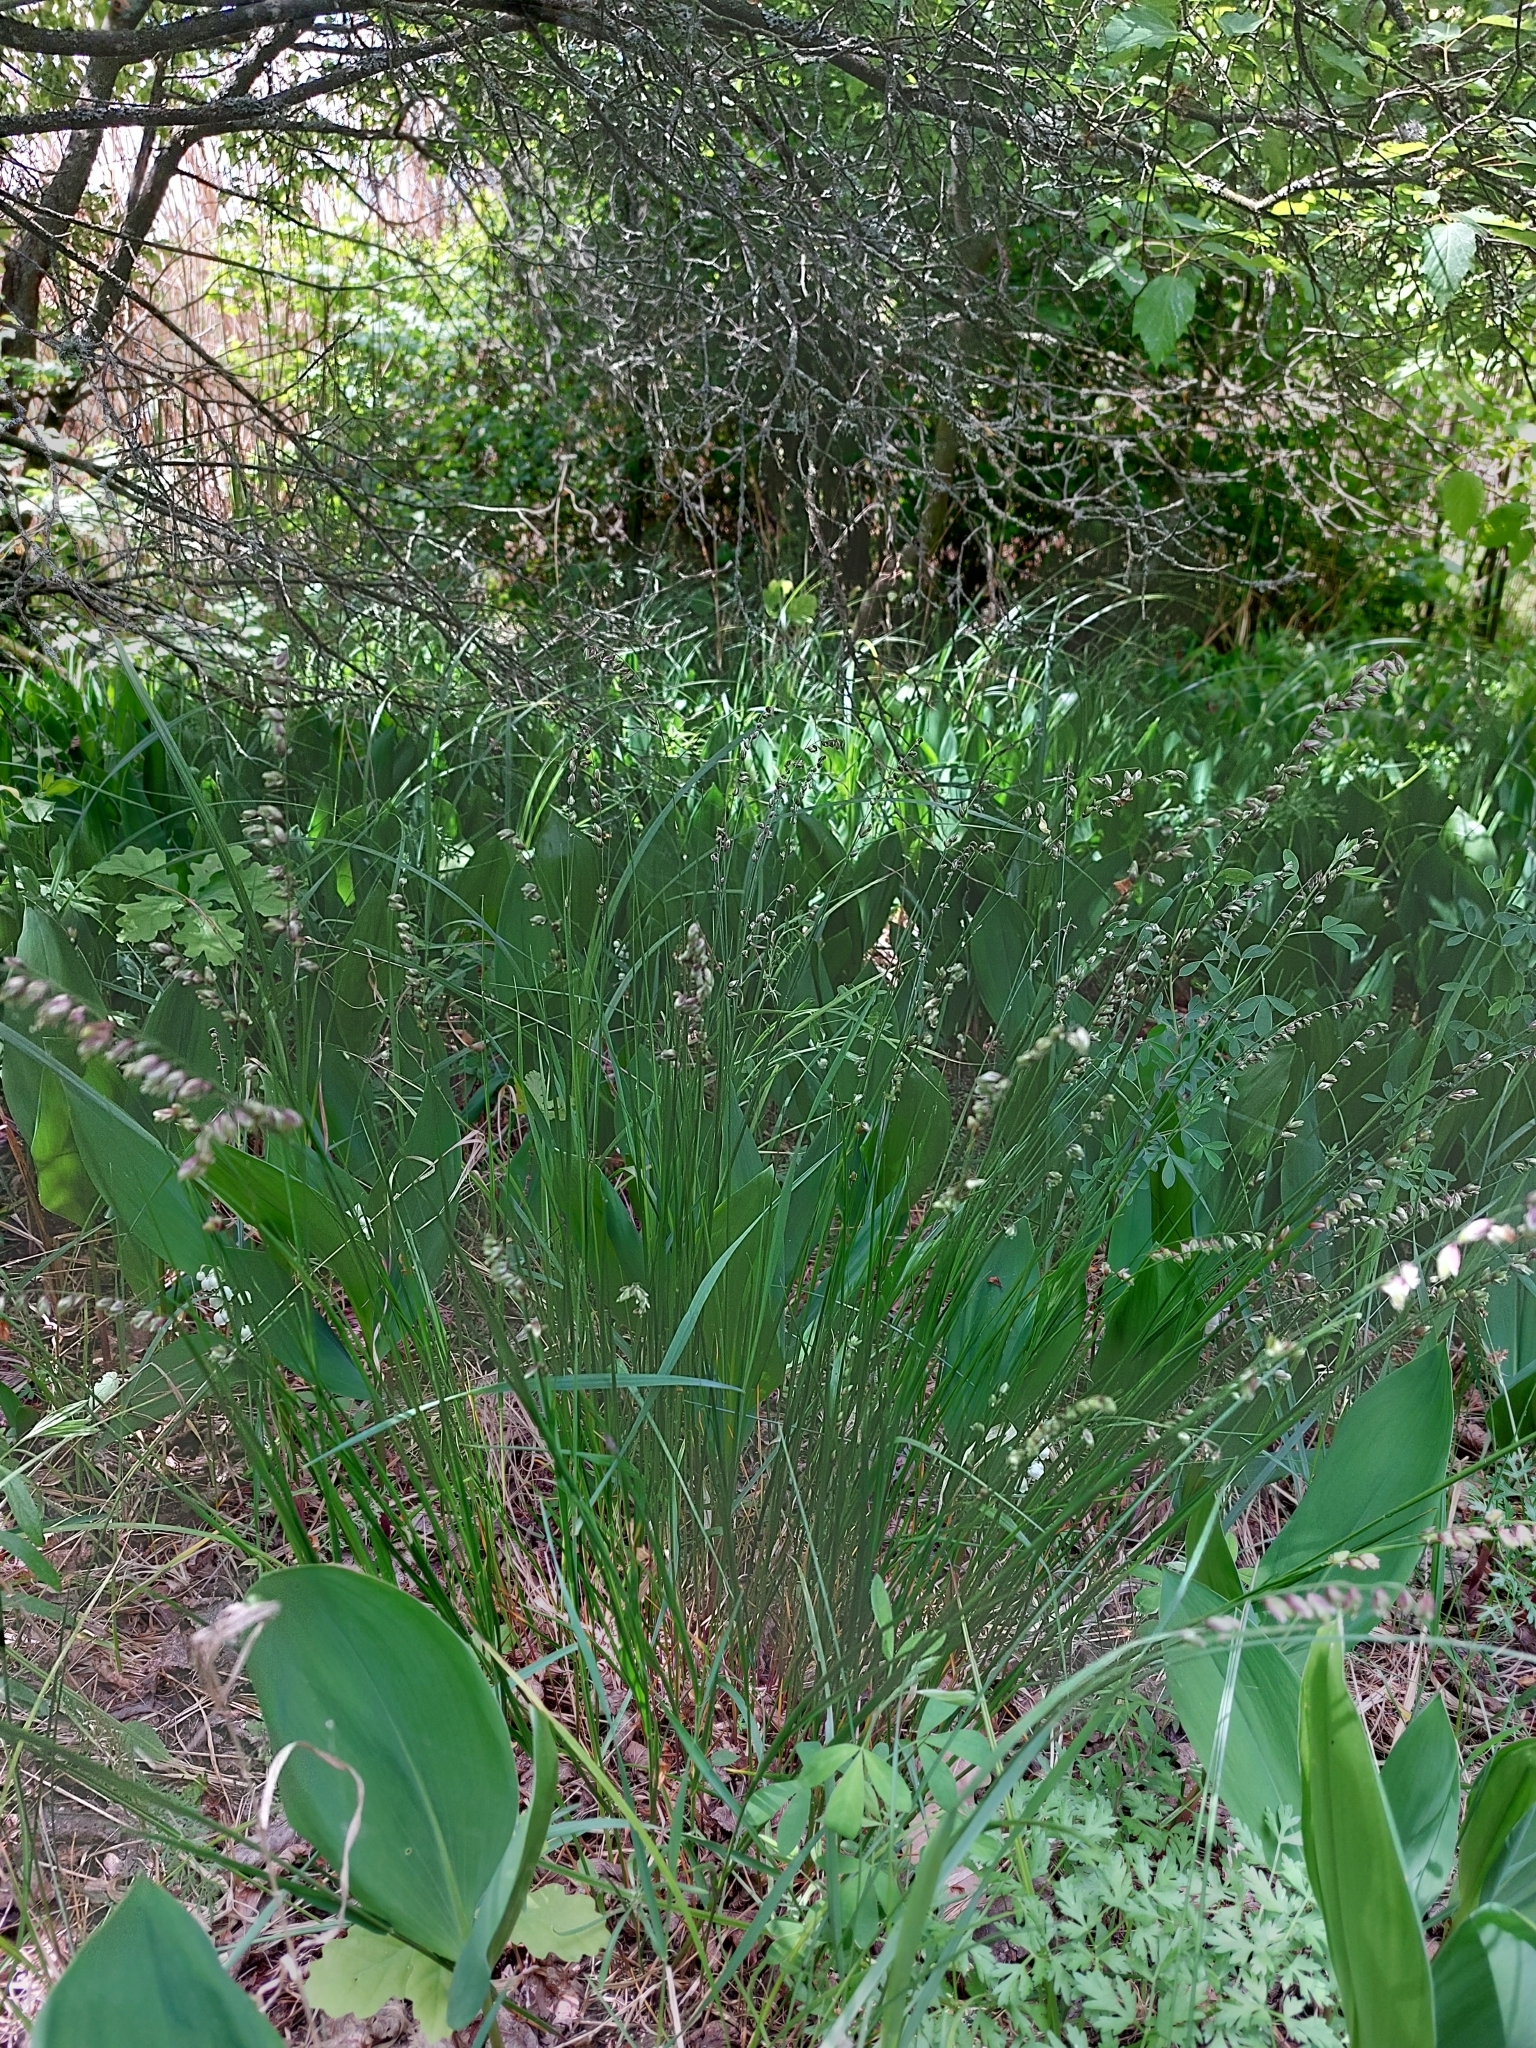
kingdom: Plantae
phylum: Tracheophyta
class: Liliopsida
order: Poales
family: Poaceae
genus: Melica
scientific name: Melica nutans
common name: Mountain melick
